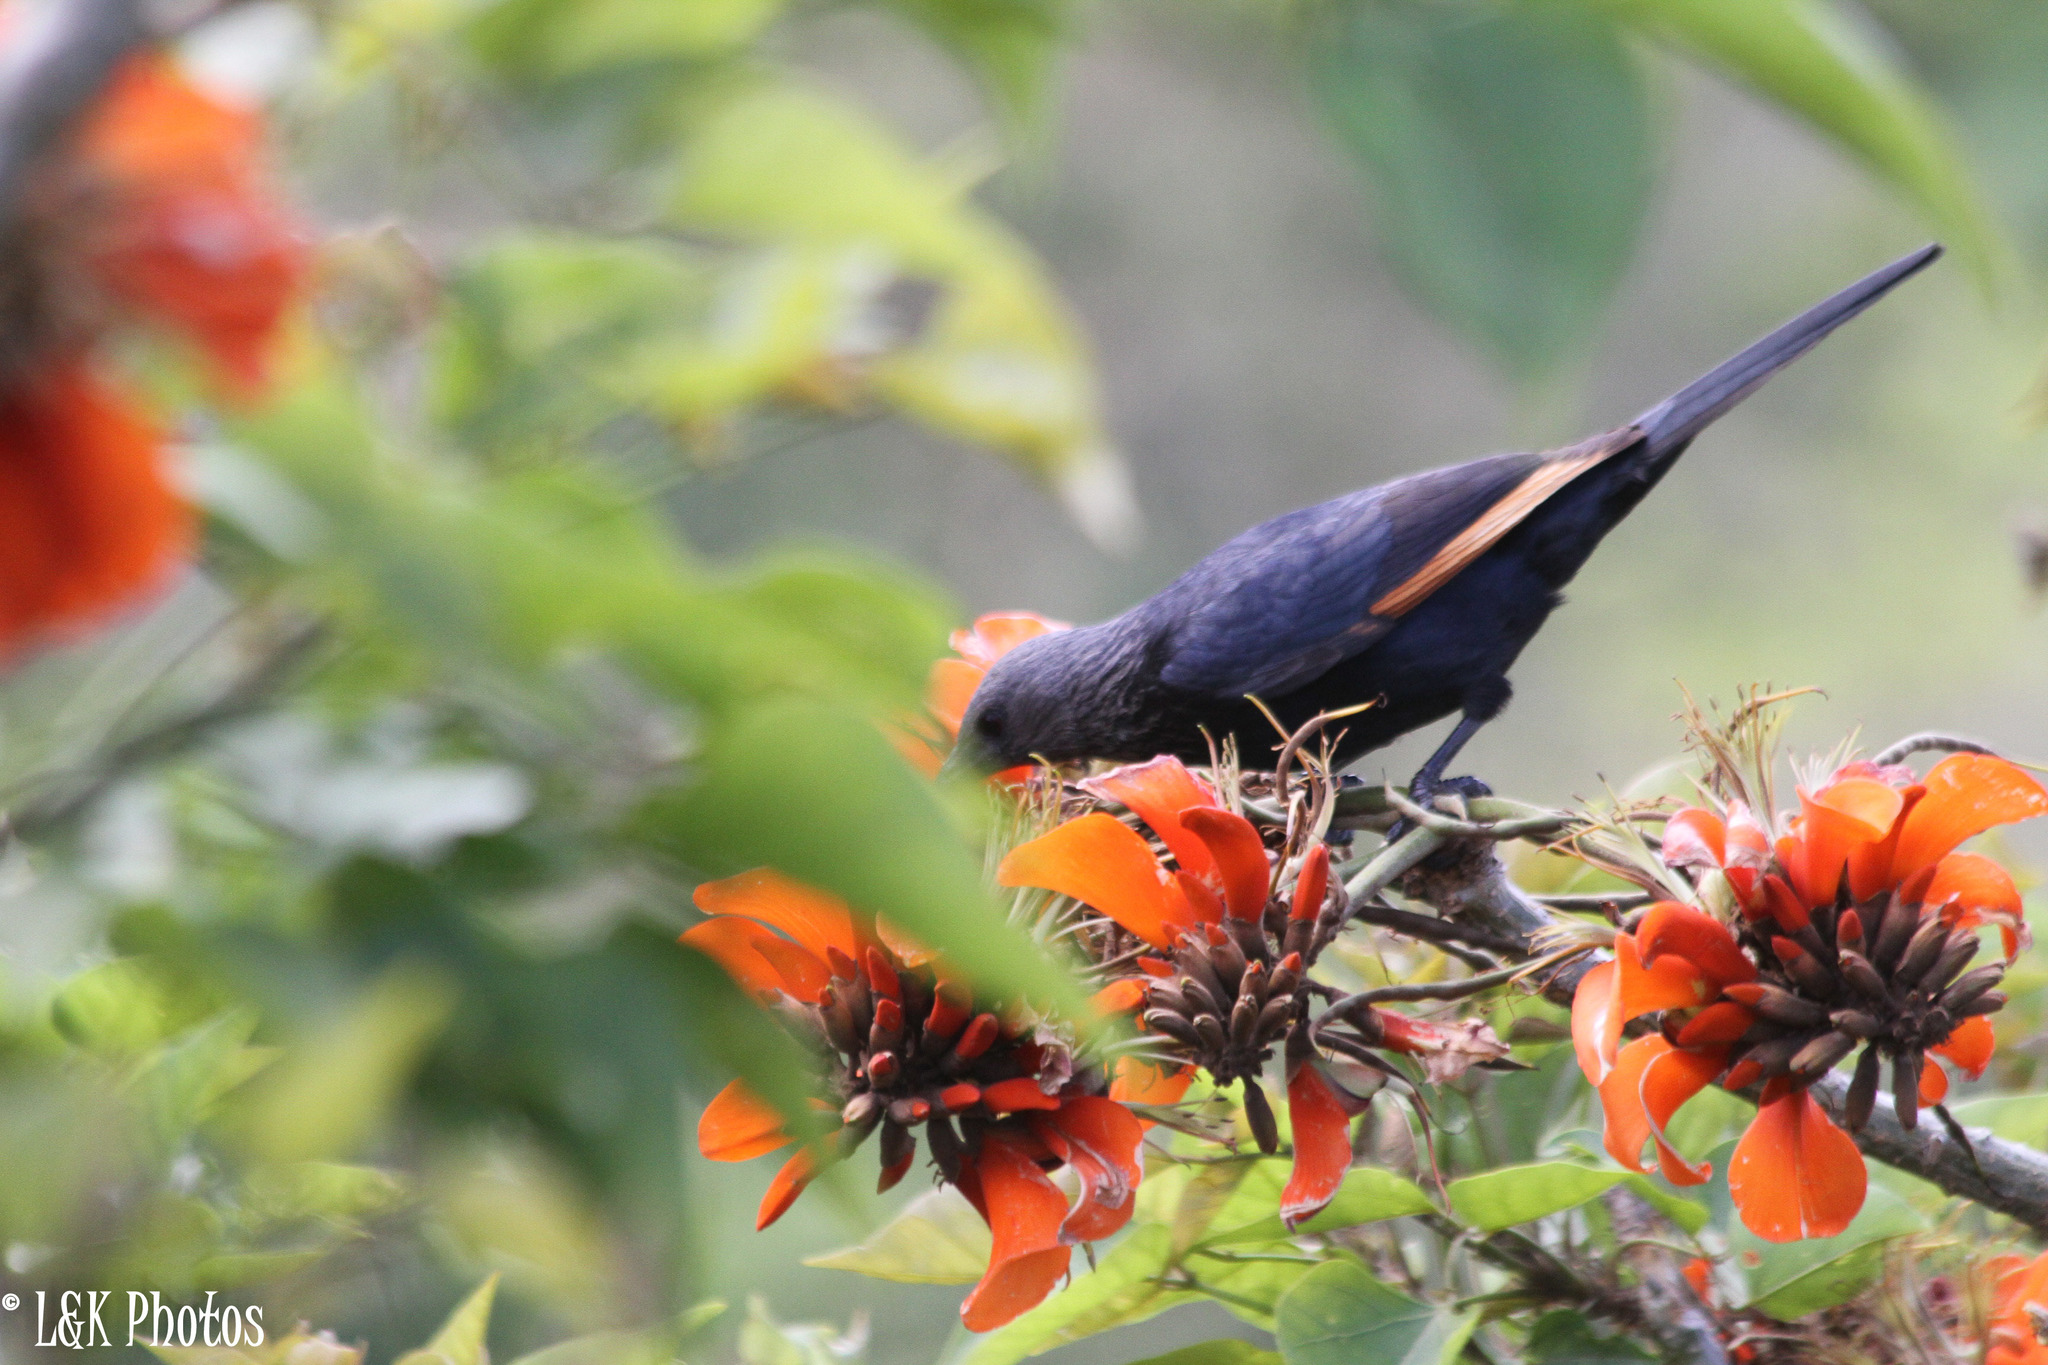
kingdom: Animalia
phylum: Chordata
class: Aves
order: Passeriformes
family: Sturnidae
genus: Onychognathus
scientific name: Onychognathus morio
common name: Red-winged starling
